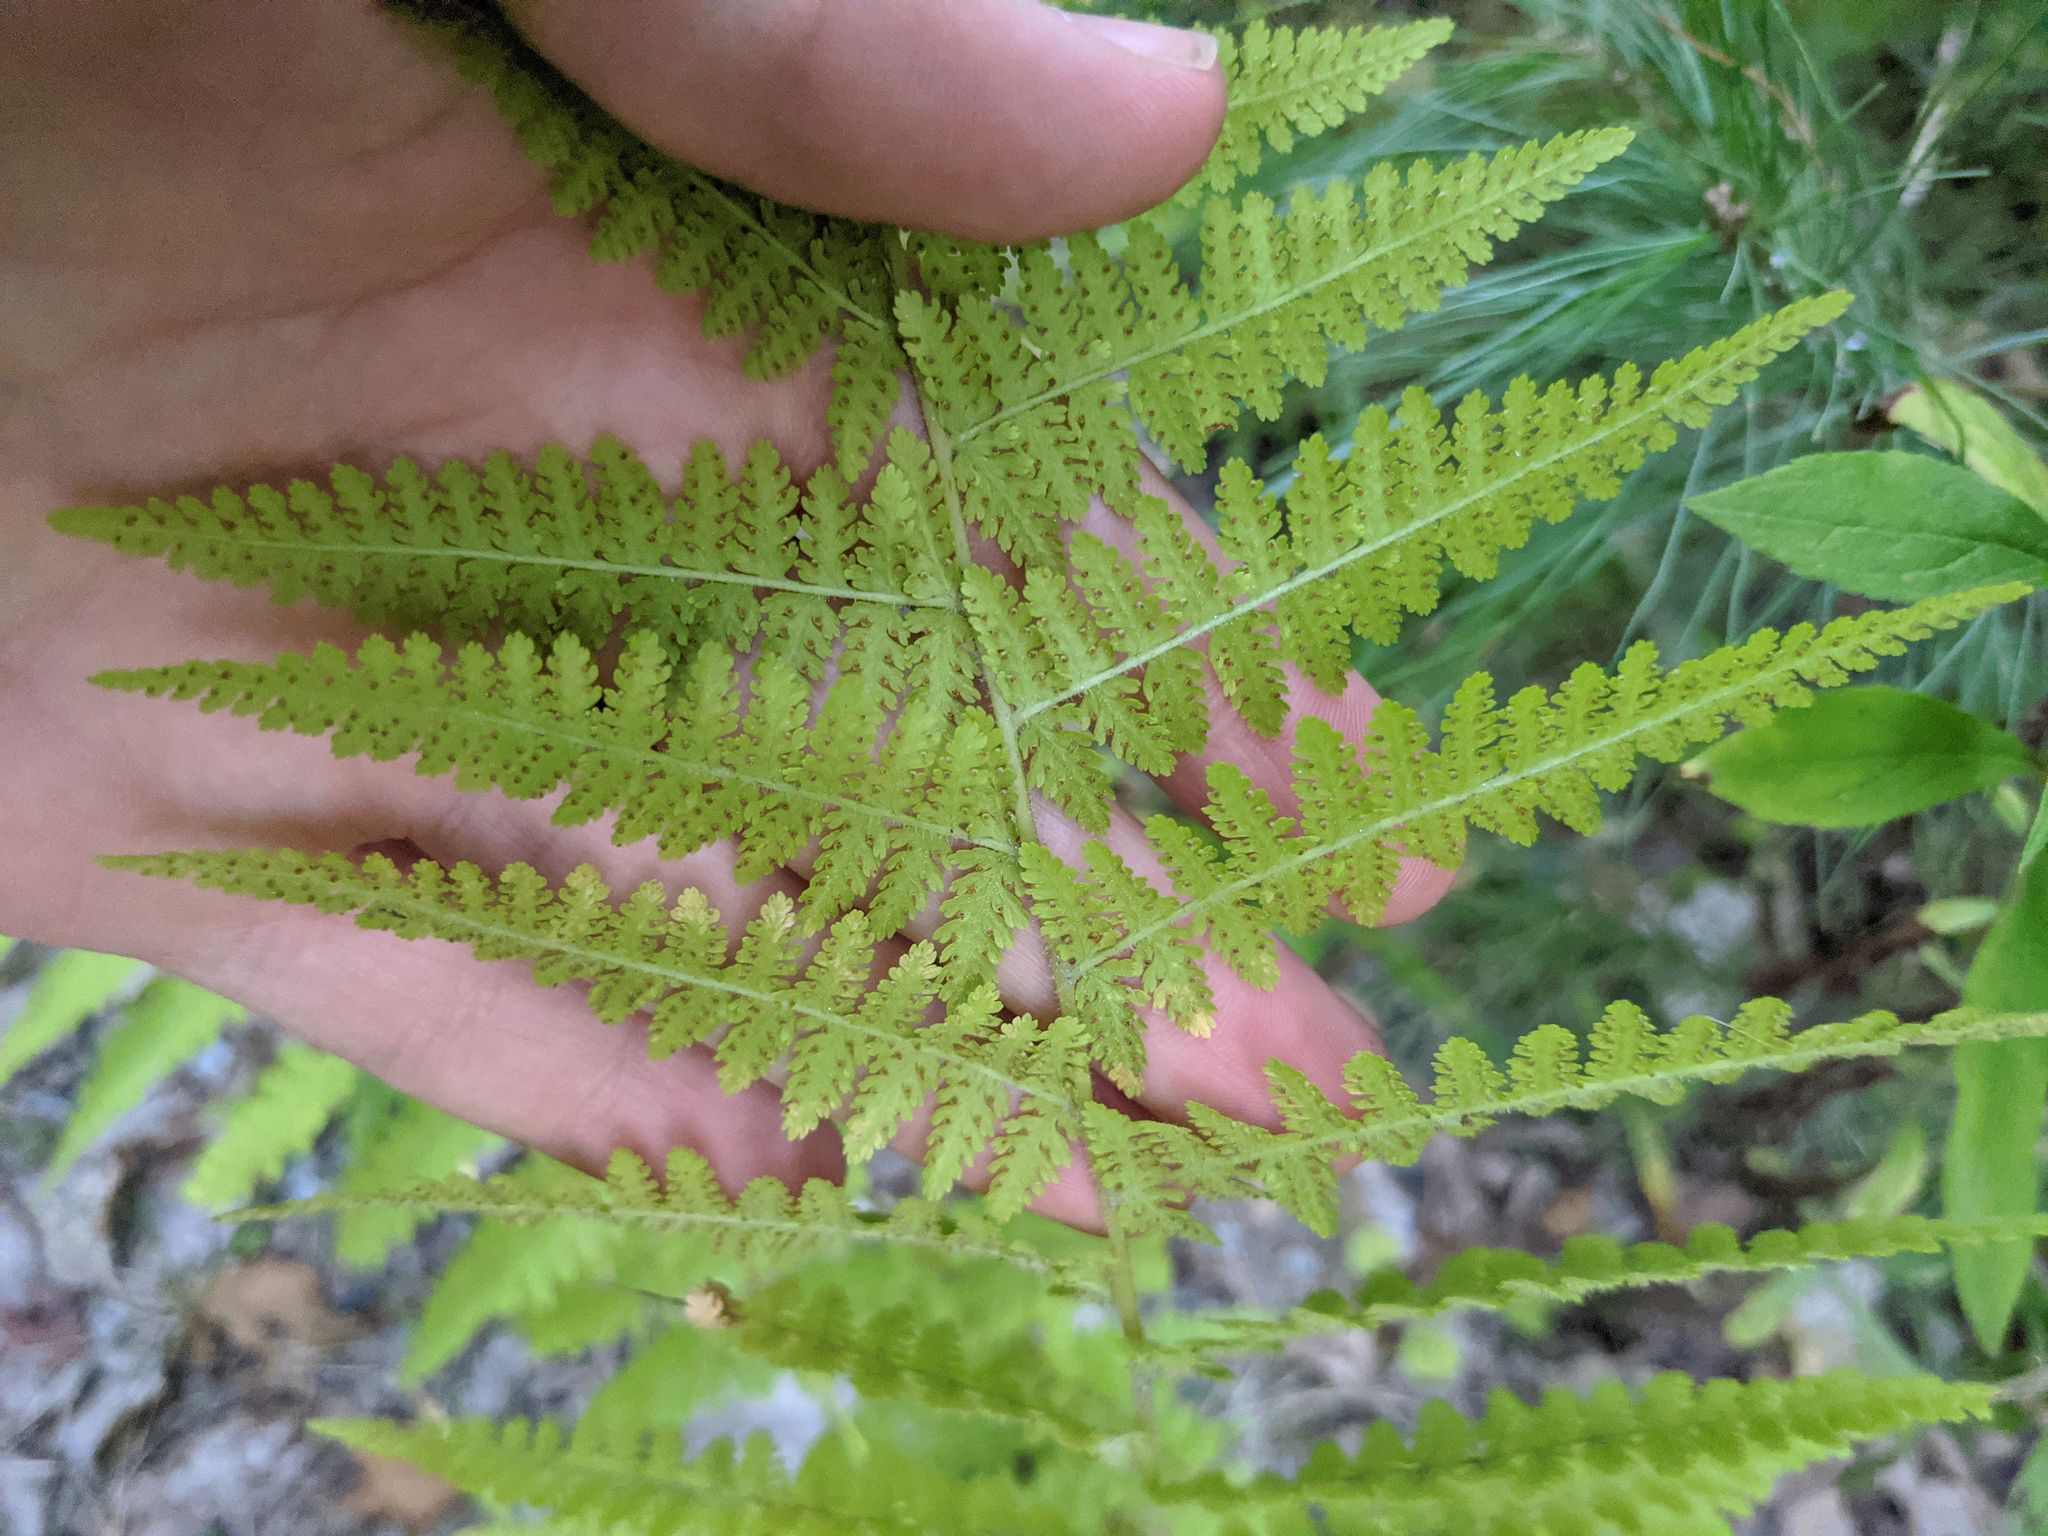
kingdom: Plantae
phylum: Tracheophyta
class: Polypodiopsida
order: Polypodiales
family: Dennstaedtiaceae
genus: Sitobolium
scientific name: Sitobolium punctilobum
